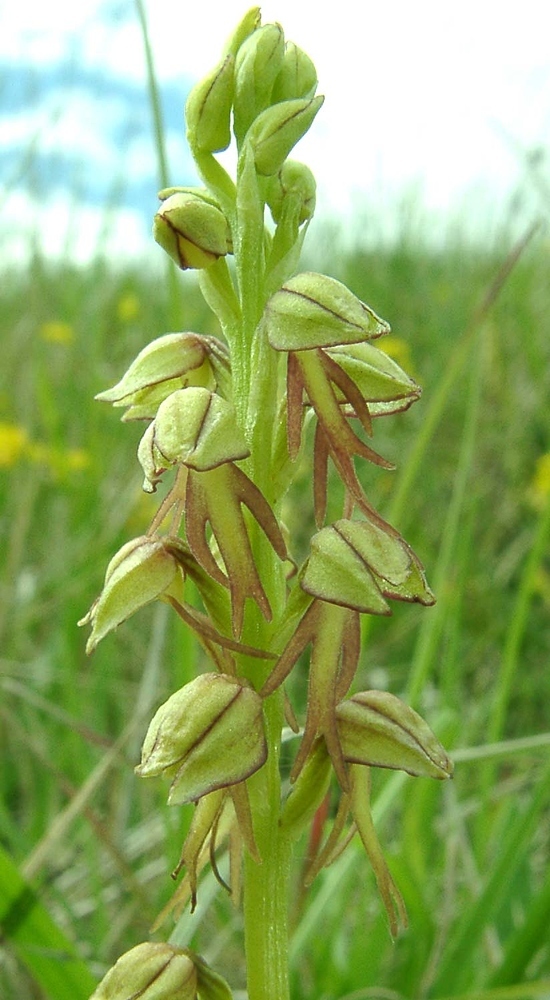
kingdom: Plantae
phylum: Tracheophyta
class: Liliopsida
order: Asparagales
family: Orchidaceae
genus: Orchis
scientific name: Orchis anthropophora
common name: Man orchid
